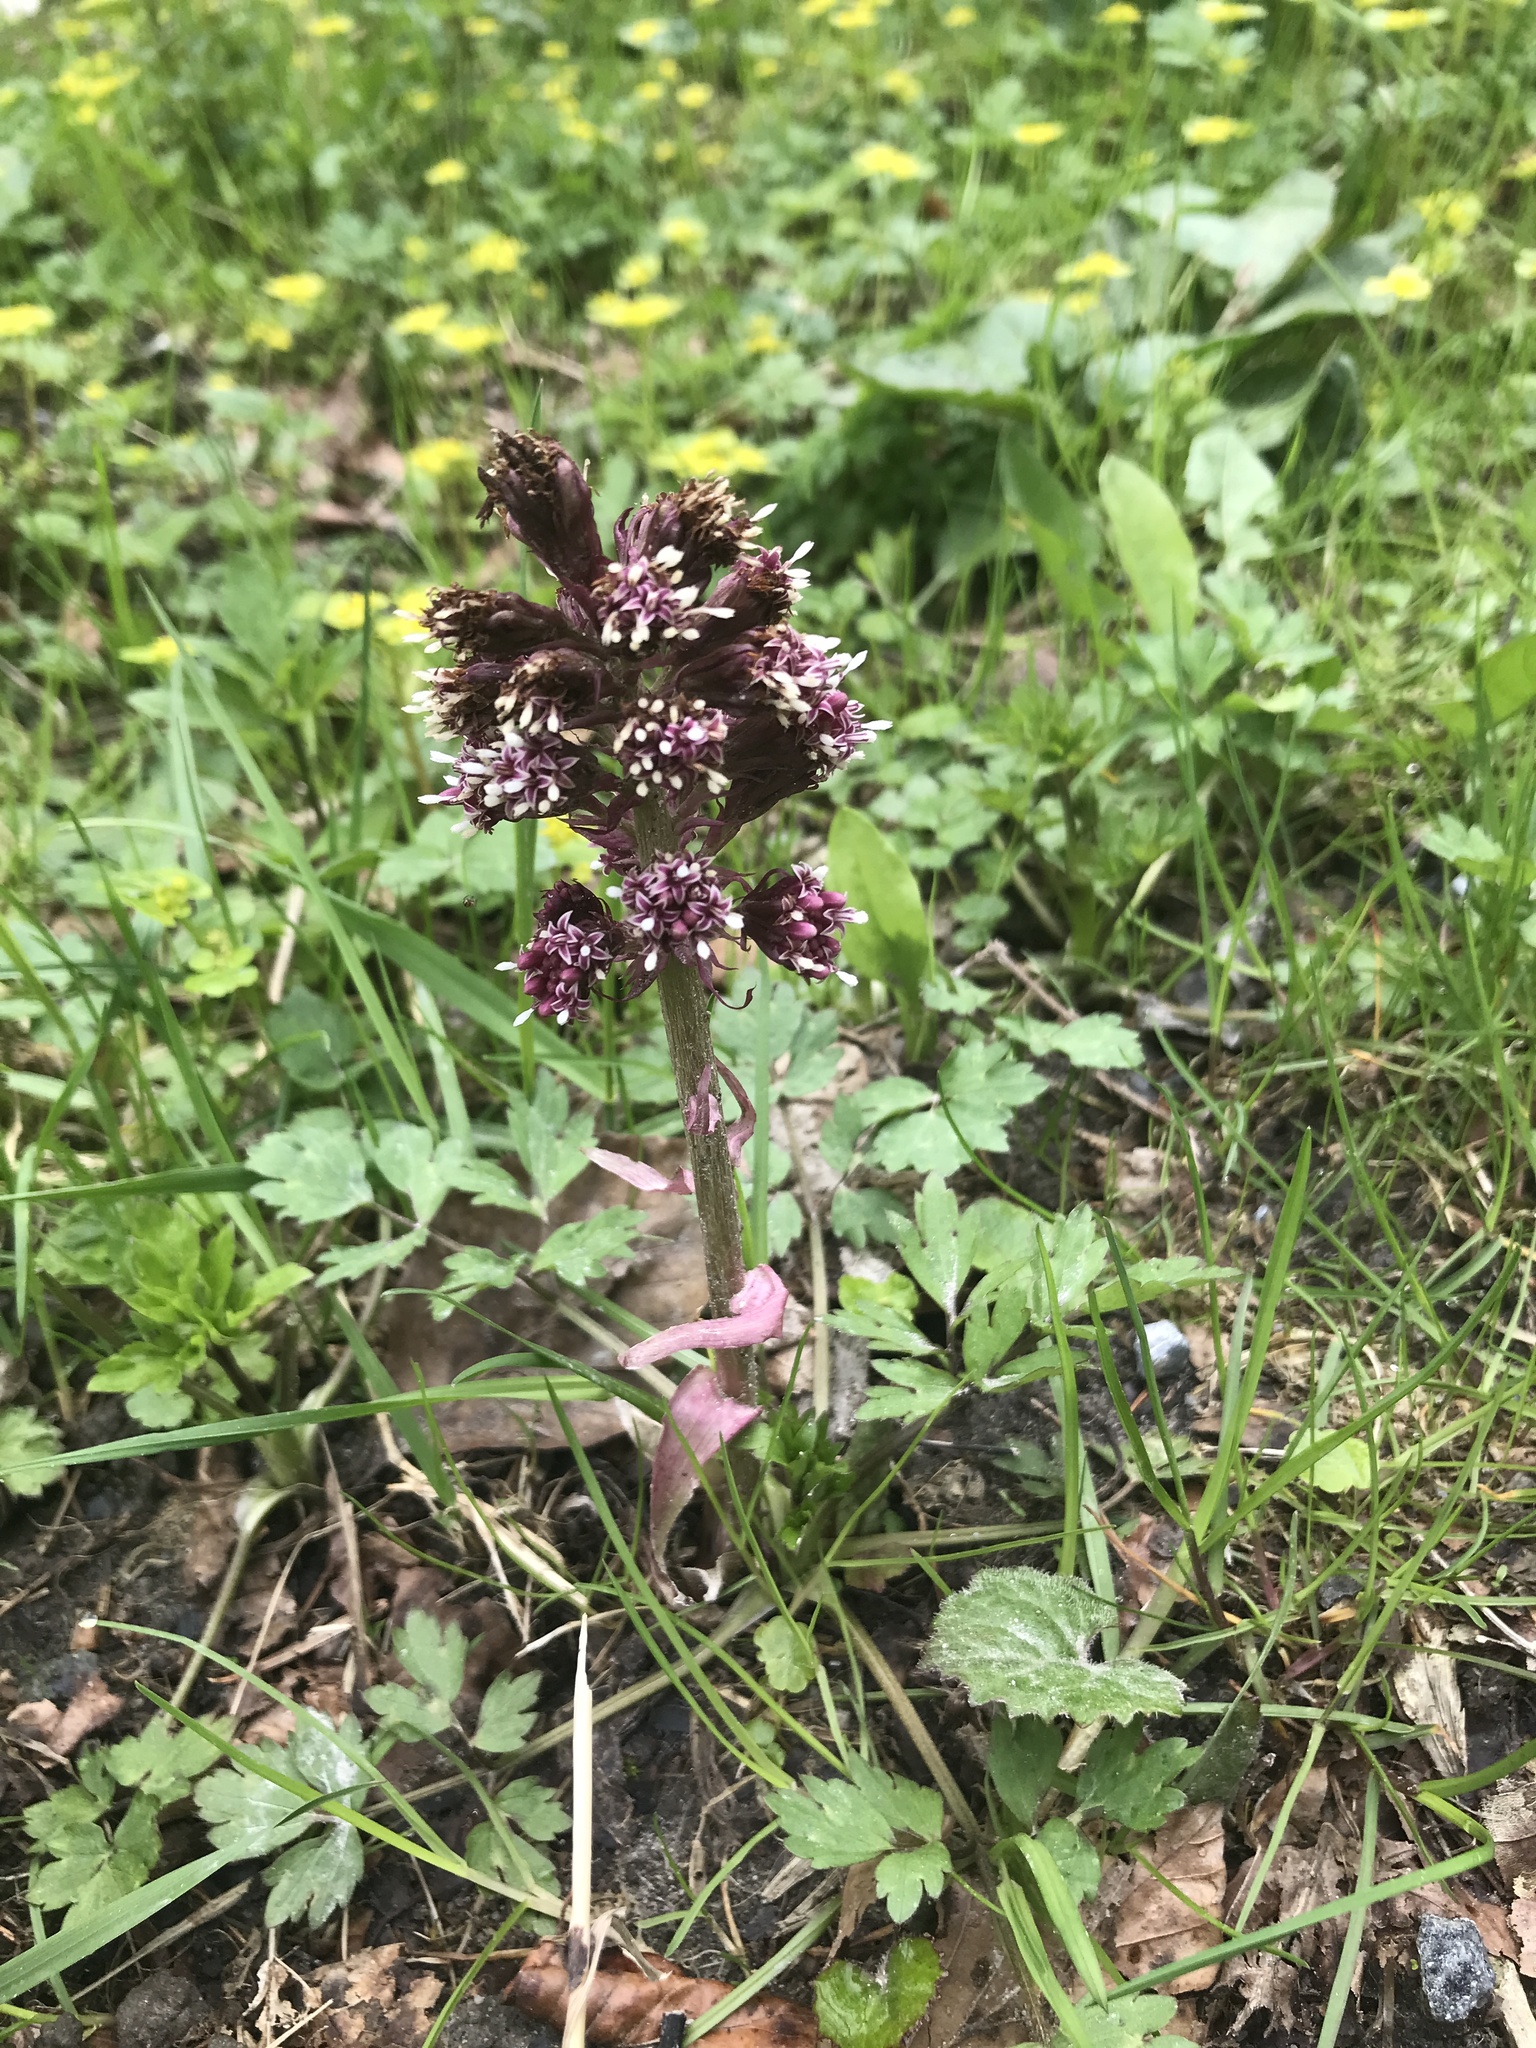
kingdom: Plantae
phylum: Tracheophyta
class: Magnoliopsida
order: Asterales
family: Asteraceae
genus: Petasites
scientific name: Petasites hybridus
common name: Butterbur
